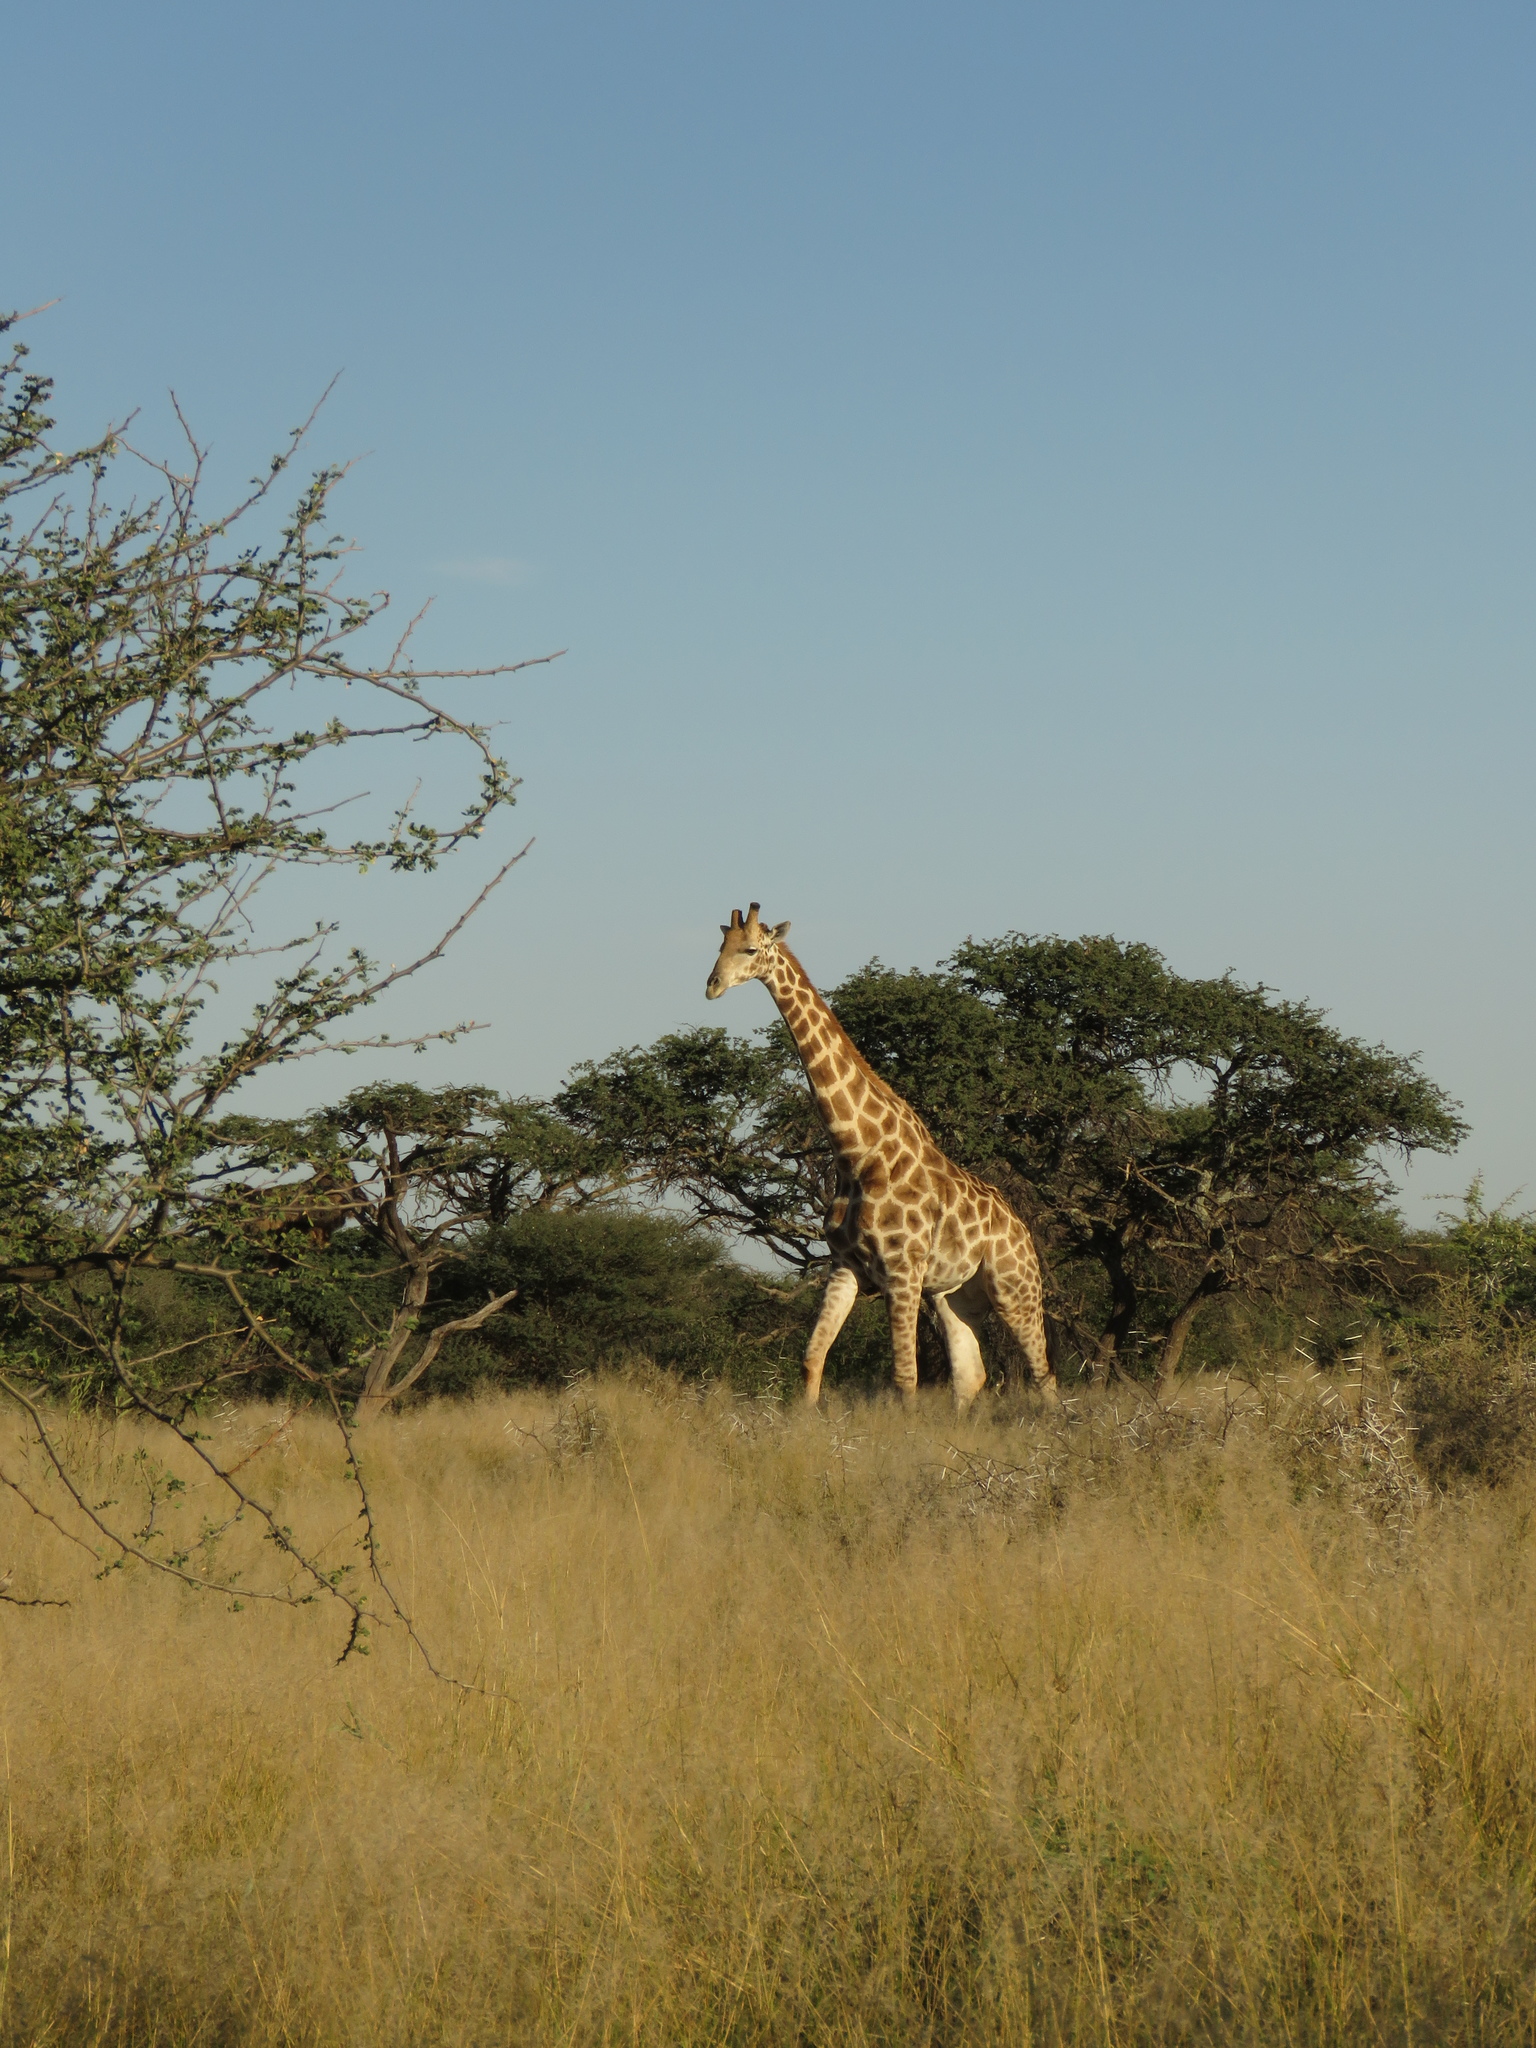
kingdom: Animalia
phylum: Chordata
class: Mammalia
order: Artiodactyla
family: Giraffidae
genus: Giraffa
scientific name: Giraffa giraffa
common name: Southern giraffe
